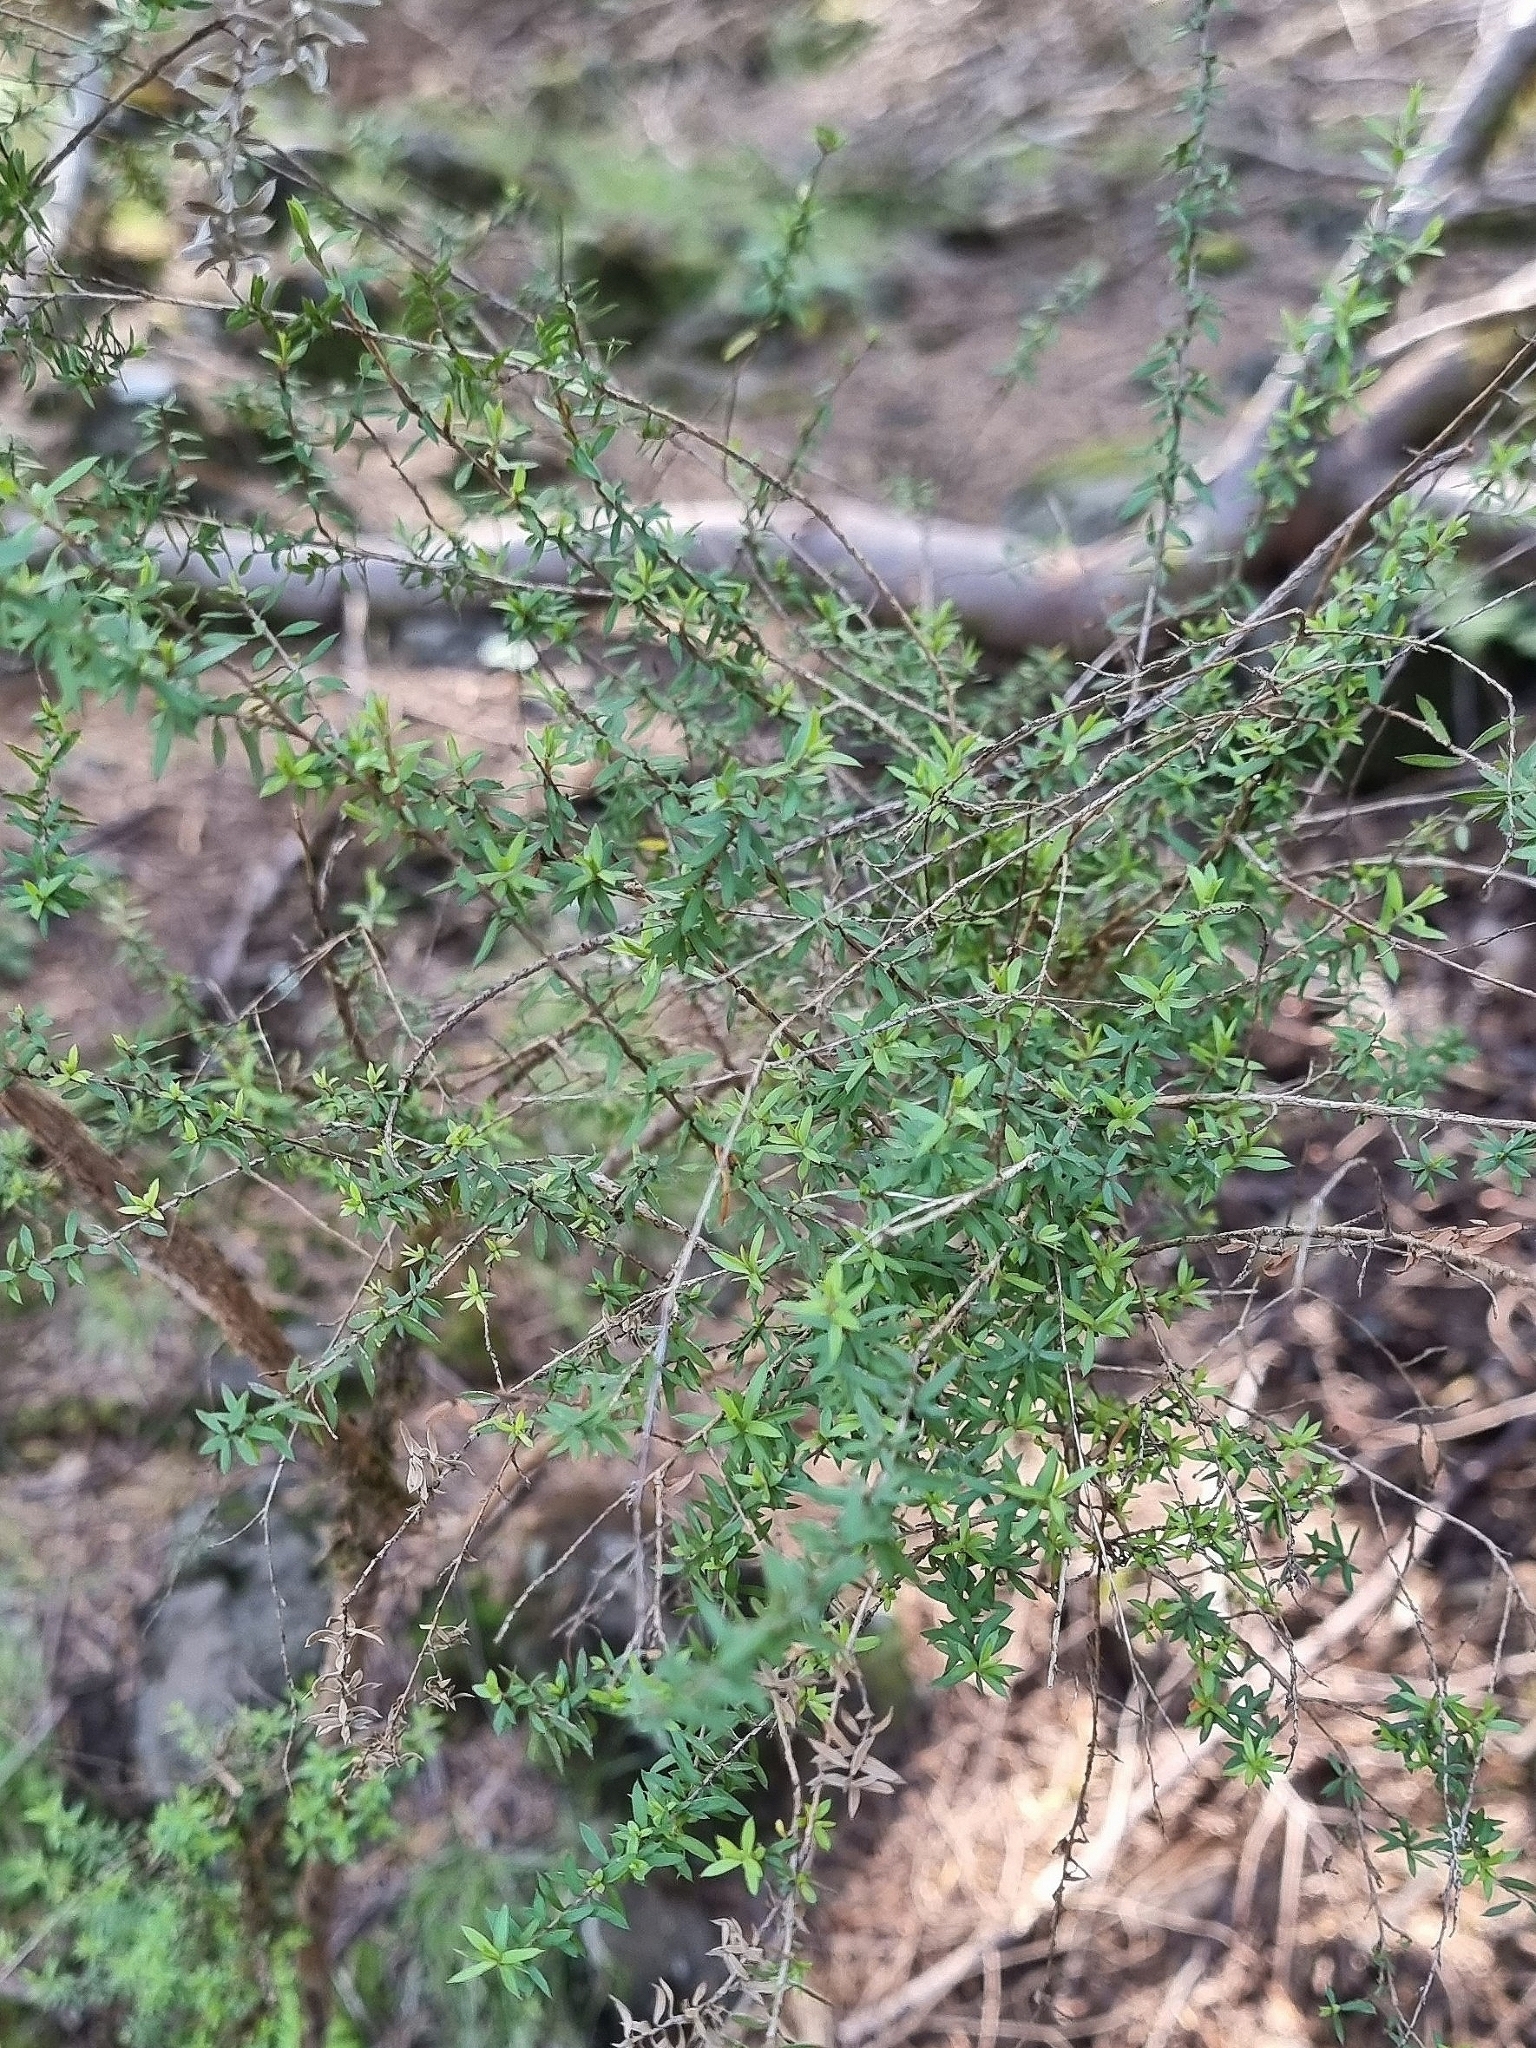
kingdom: Plantae
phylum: Tracheophyta
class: Magnoliopsida
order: Myrtales
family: Myrtaceae
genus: Leptospermum
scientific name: Leptospermum scoparium
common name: Broom tea-tree
